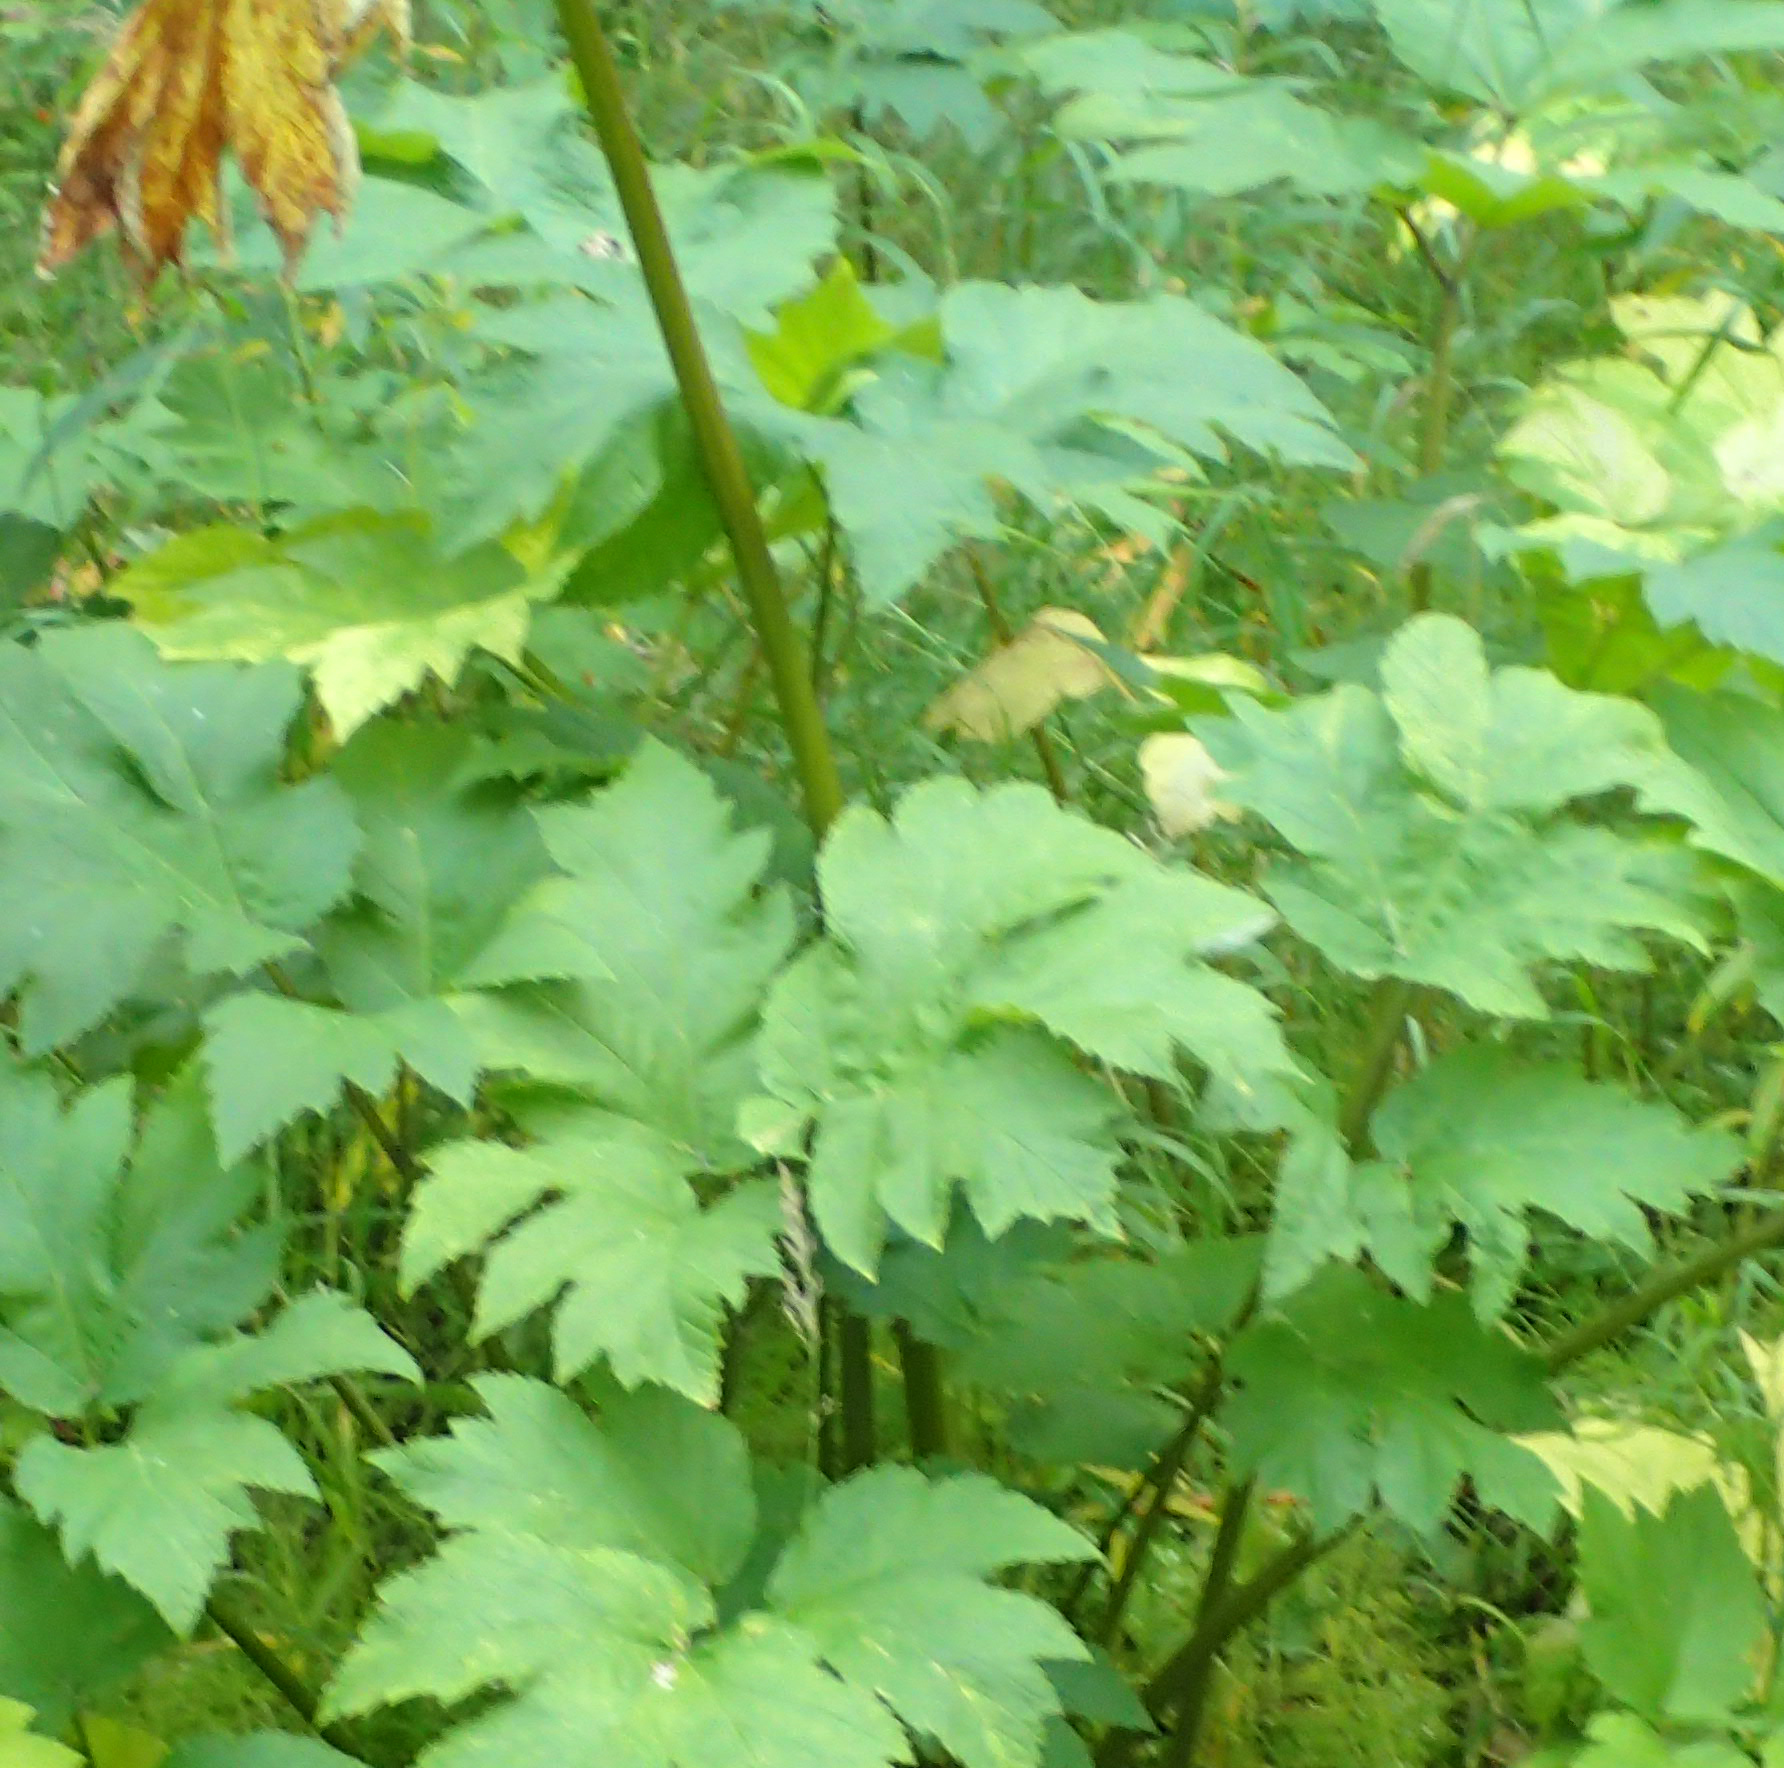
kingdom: Plantae
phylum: Tracheophyta
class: Magnoliopsida
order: Apiales
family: Apiaceae
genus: Heracleum
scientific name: Heracleum maximum
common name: American cow parsnip
